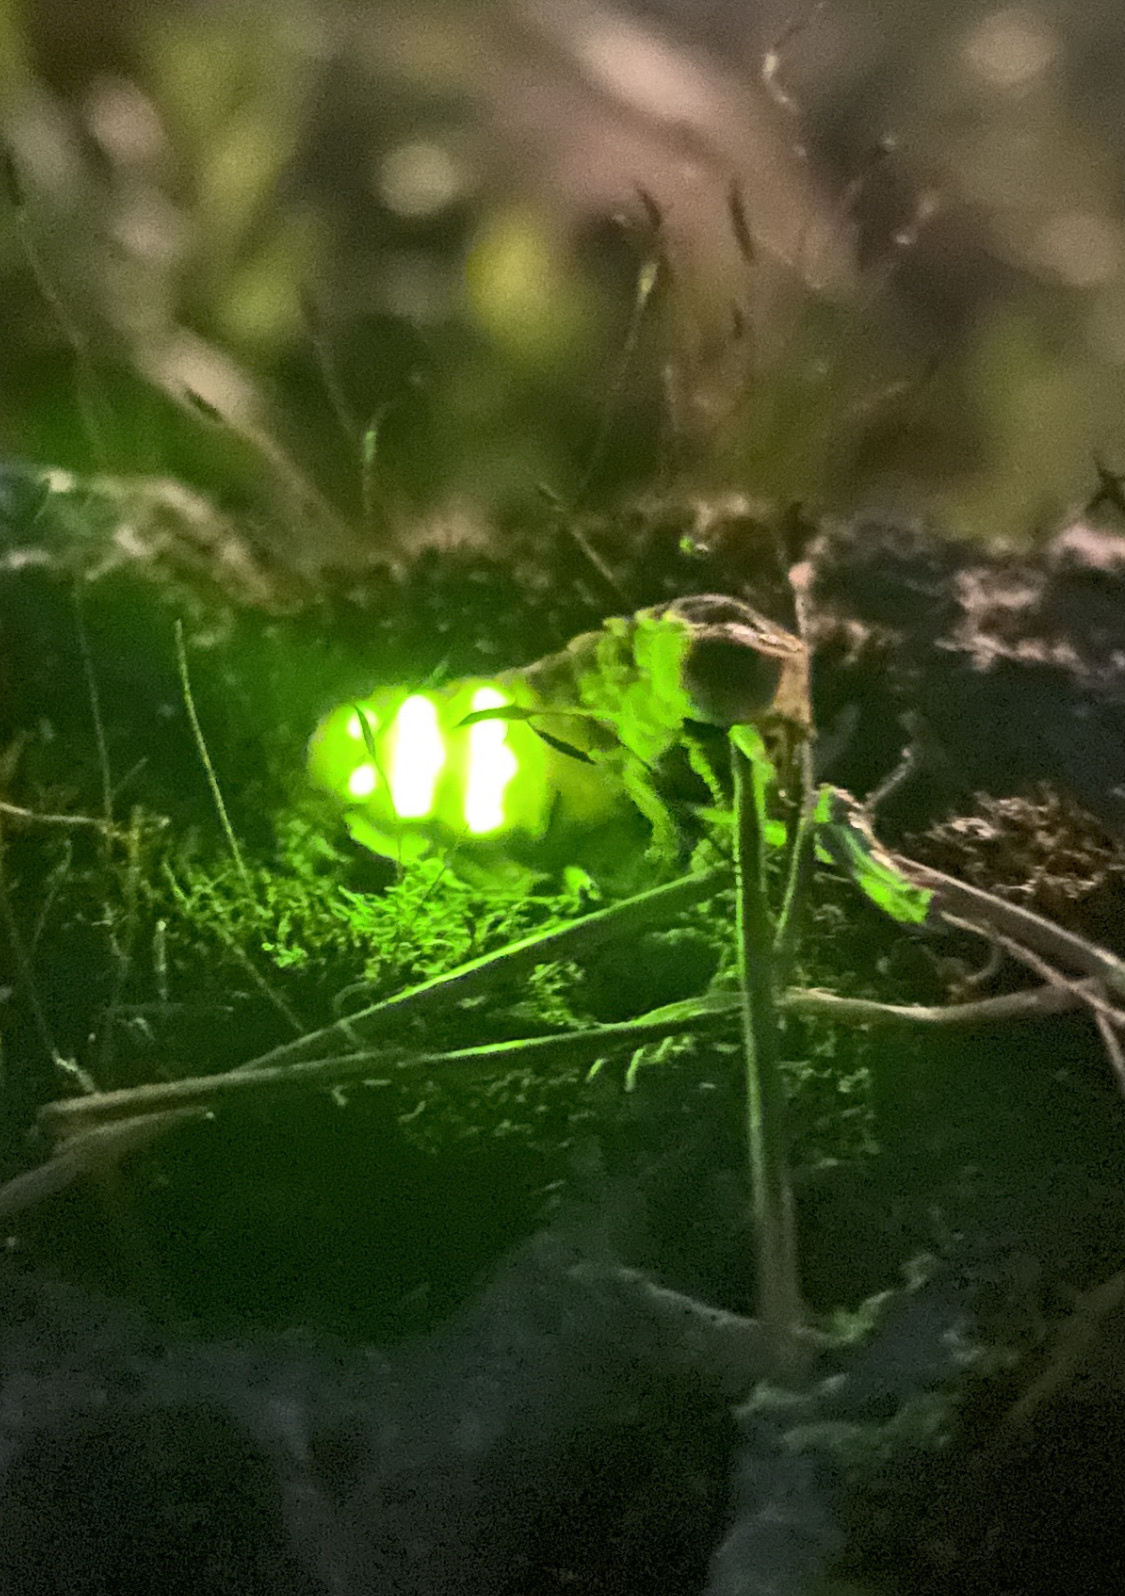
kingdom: Animalia
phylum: Arthropoda
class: Insecta
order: Coleoptera
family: Lampyridae
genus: Lampyris
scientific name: Lampyris noctiluca
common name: Glow-worm
